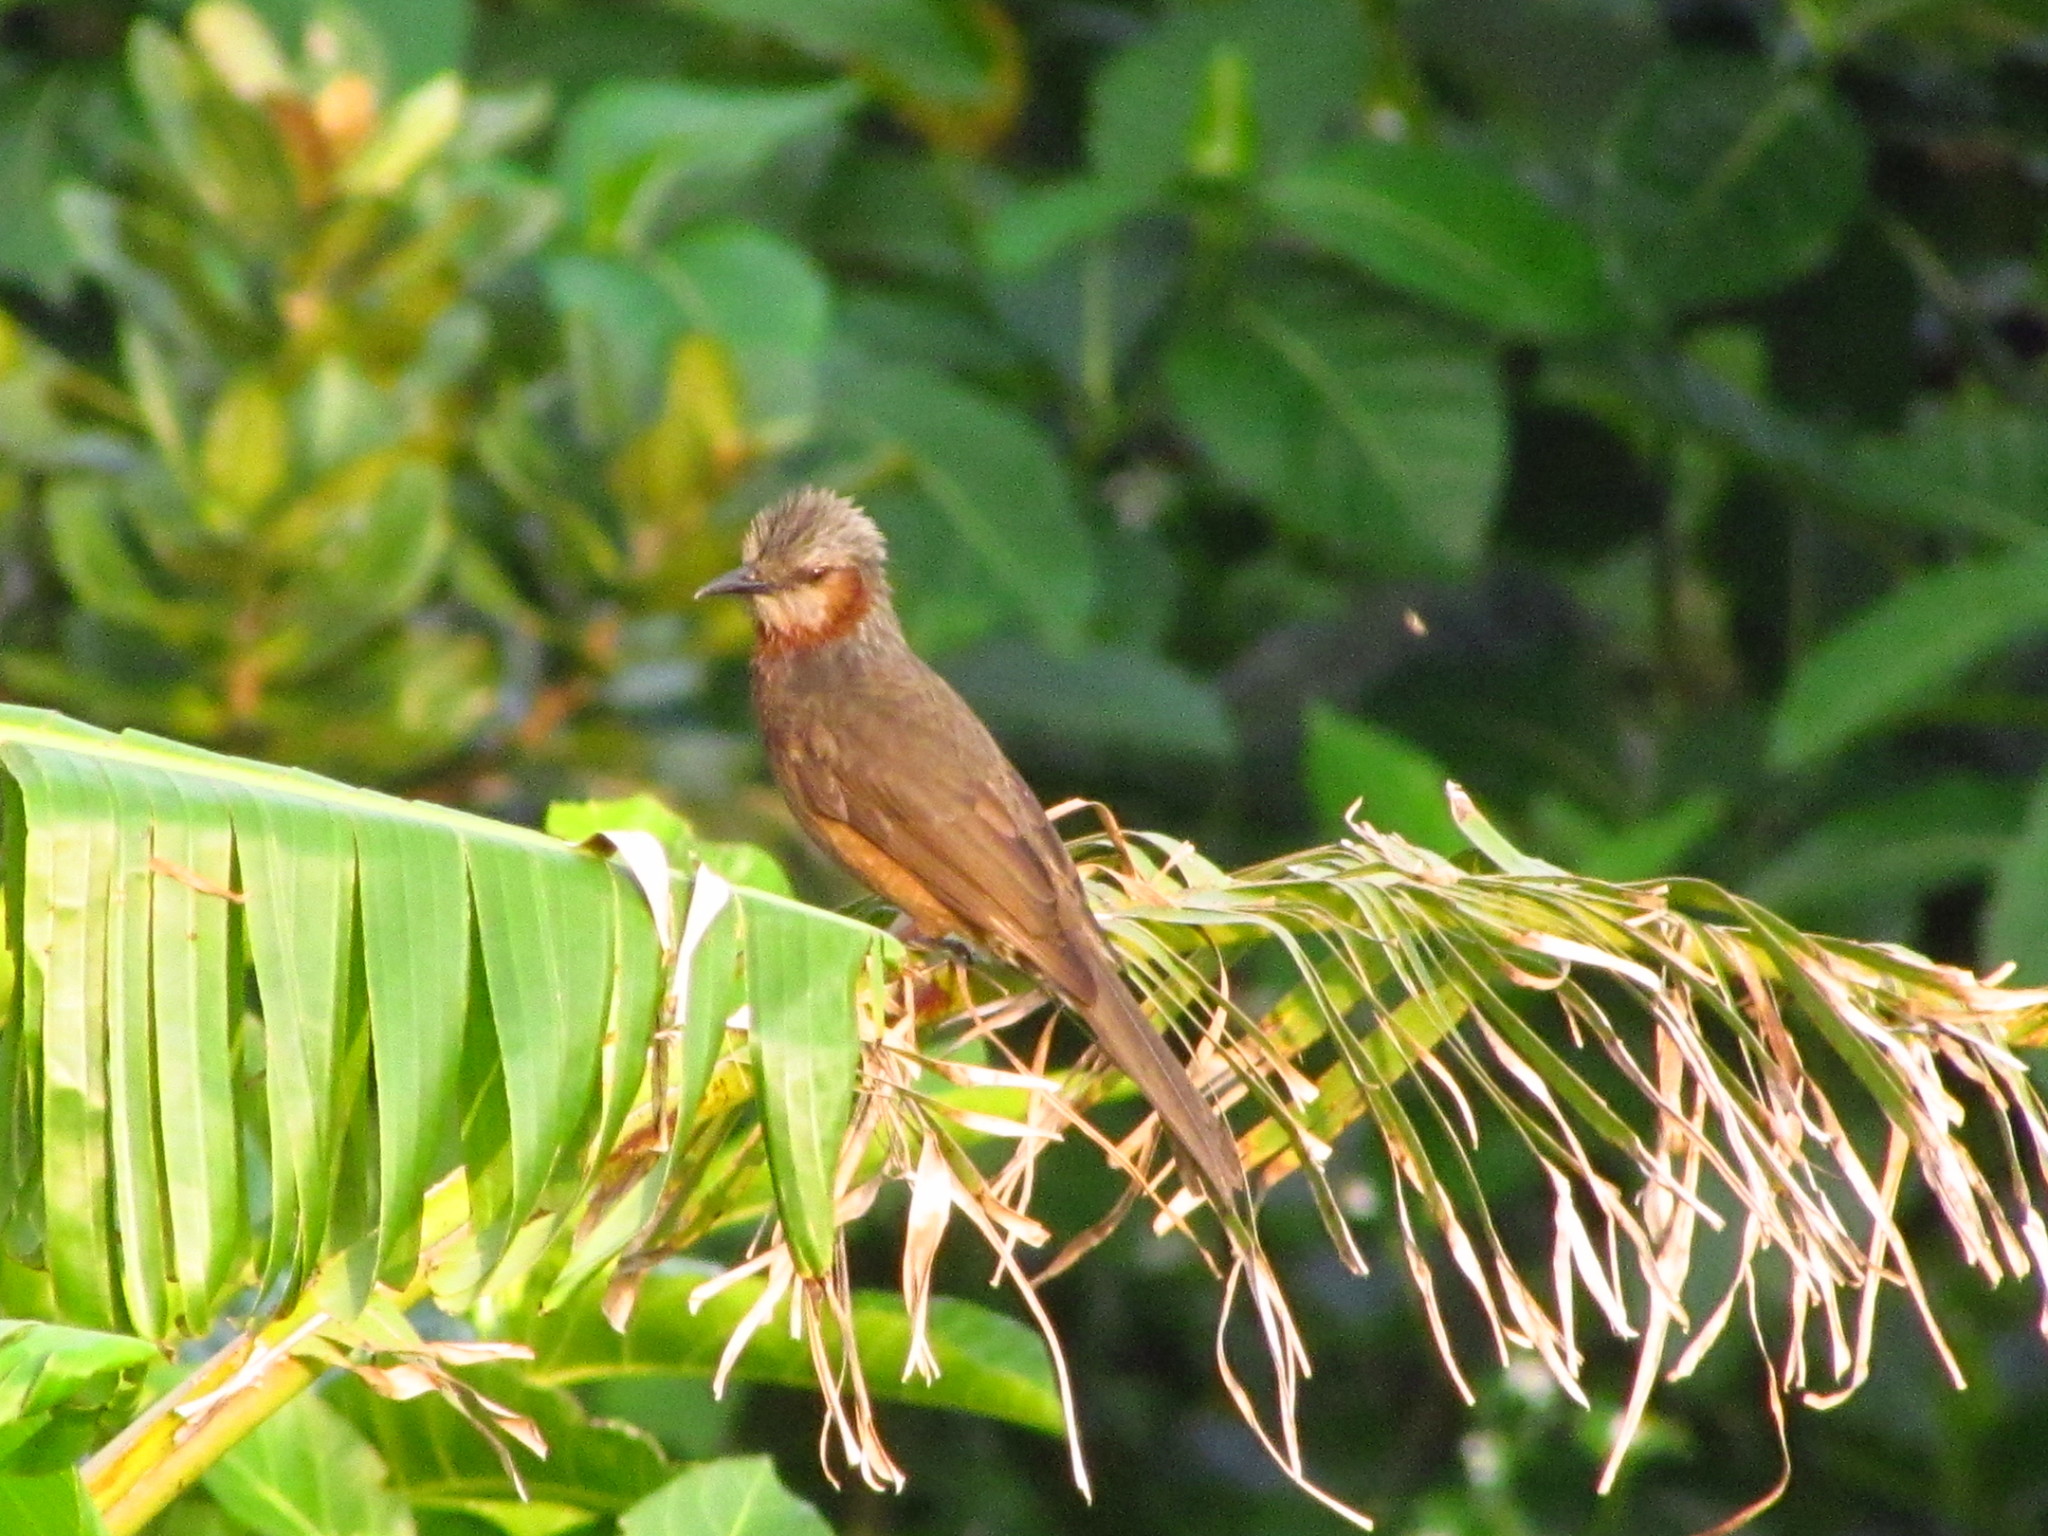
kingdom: Animalia
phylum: Chordata
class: Aves
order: Passeriformes
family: Pycnonotidae
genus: Hypsipetes
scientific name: Hypsipetes amaurotis
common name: Brown-eared bulbul
